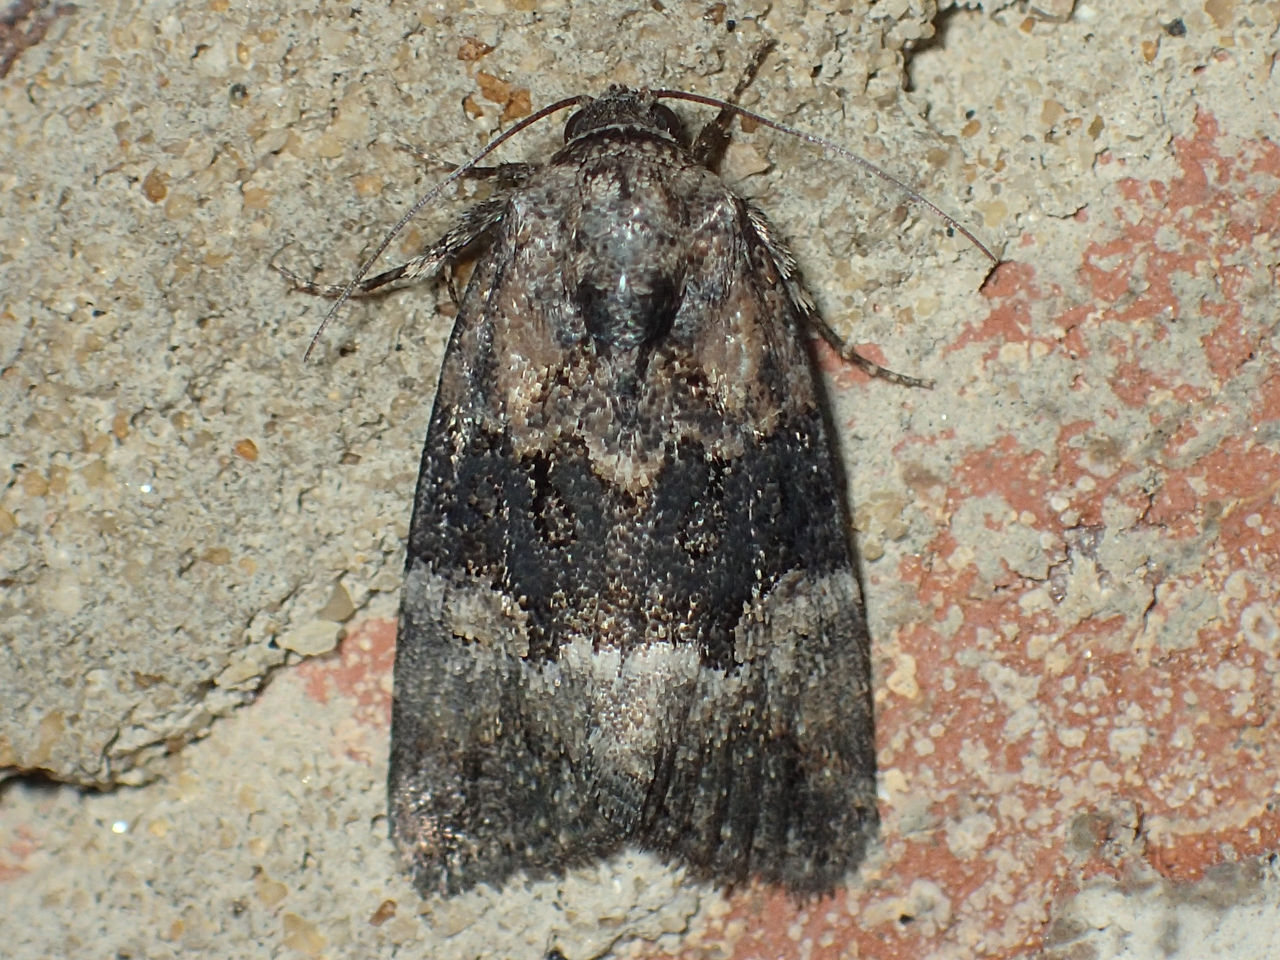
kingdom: Animalia
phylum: Arthropoda
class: Insecta
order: Lepidoptera
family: Noctuidae
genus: Elaphria
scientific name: Elaphria georgei
